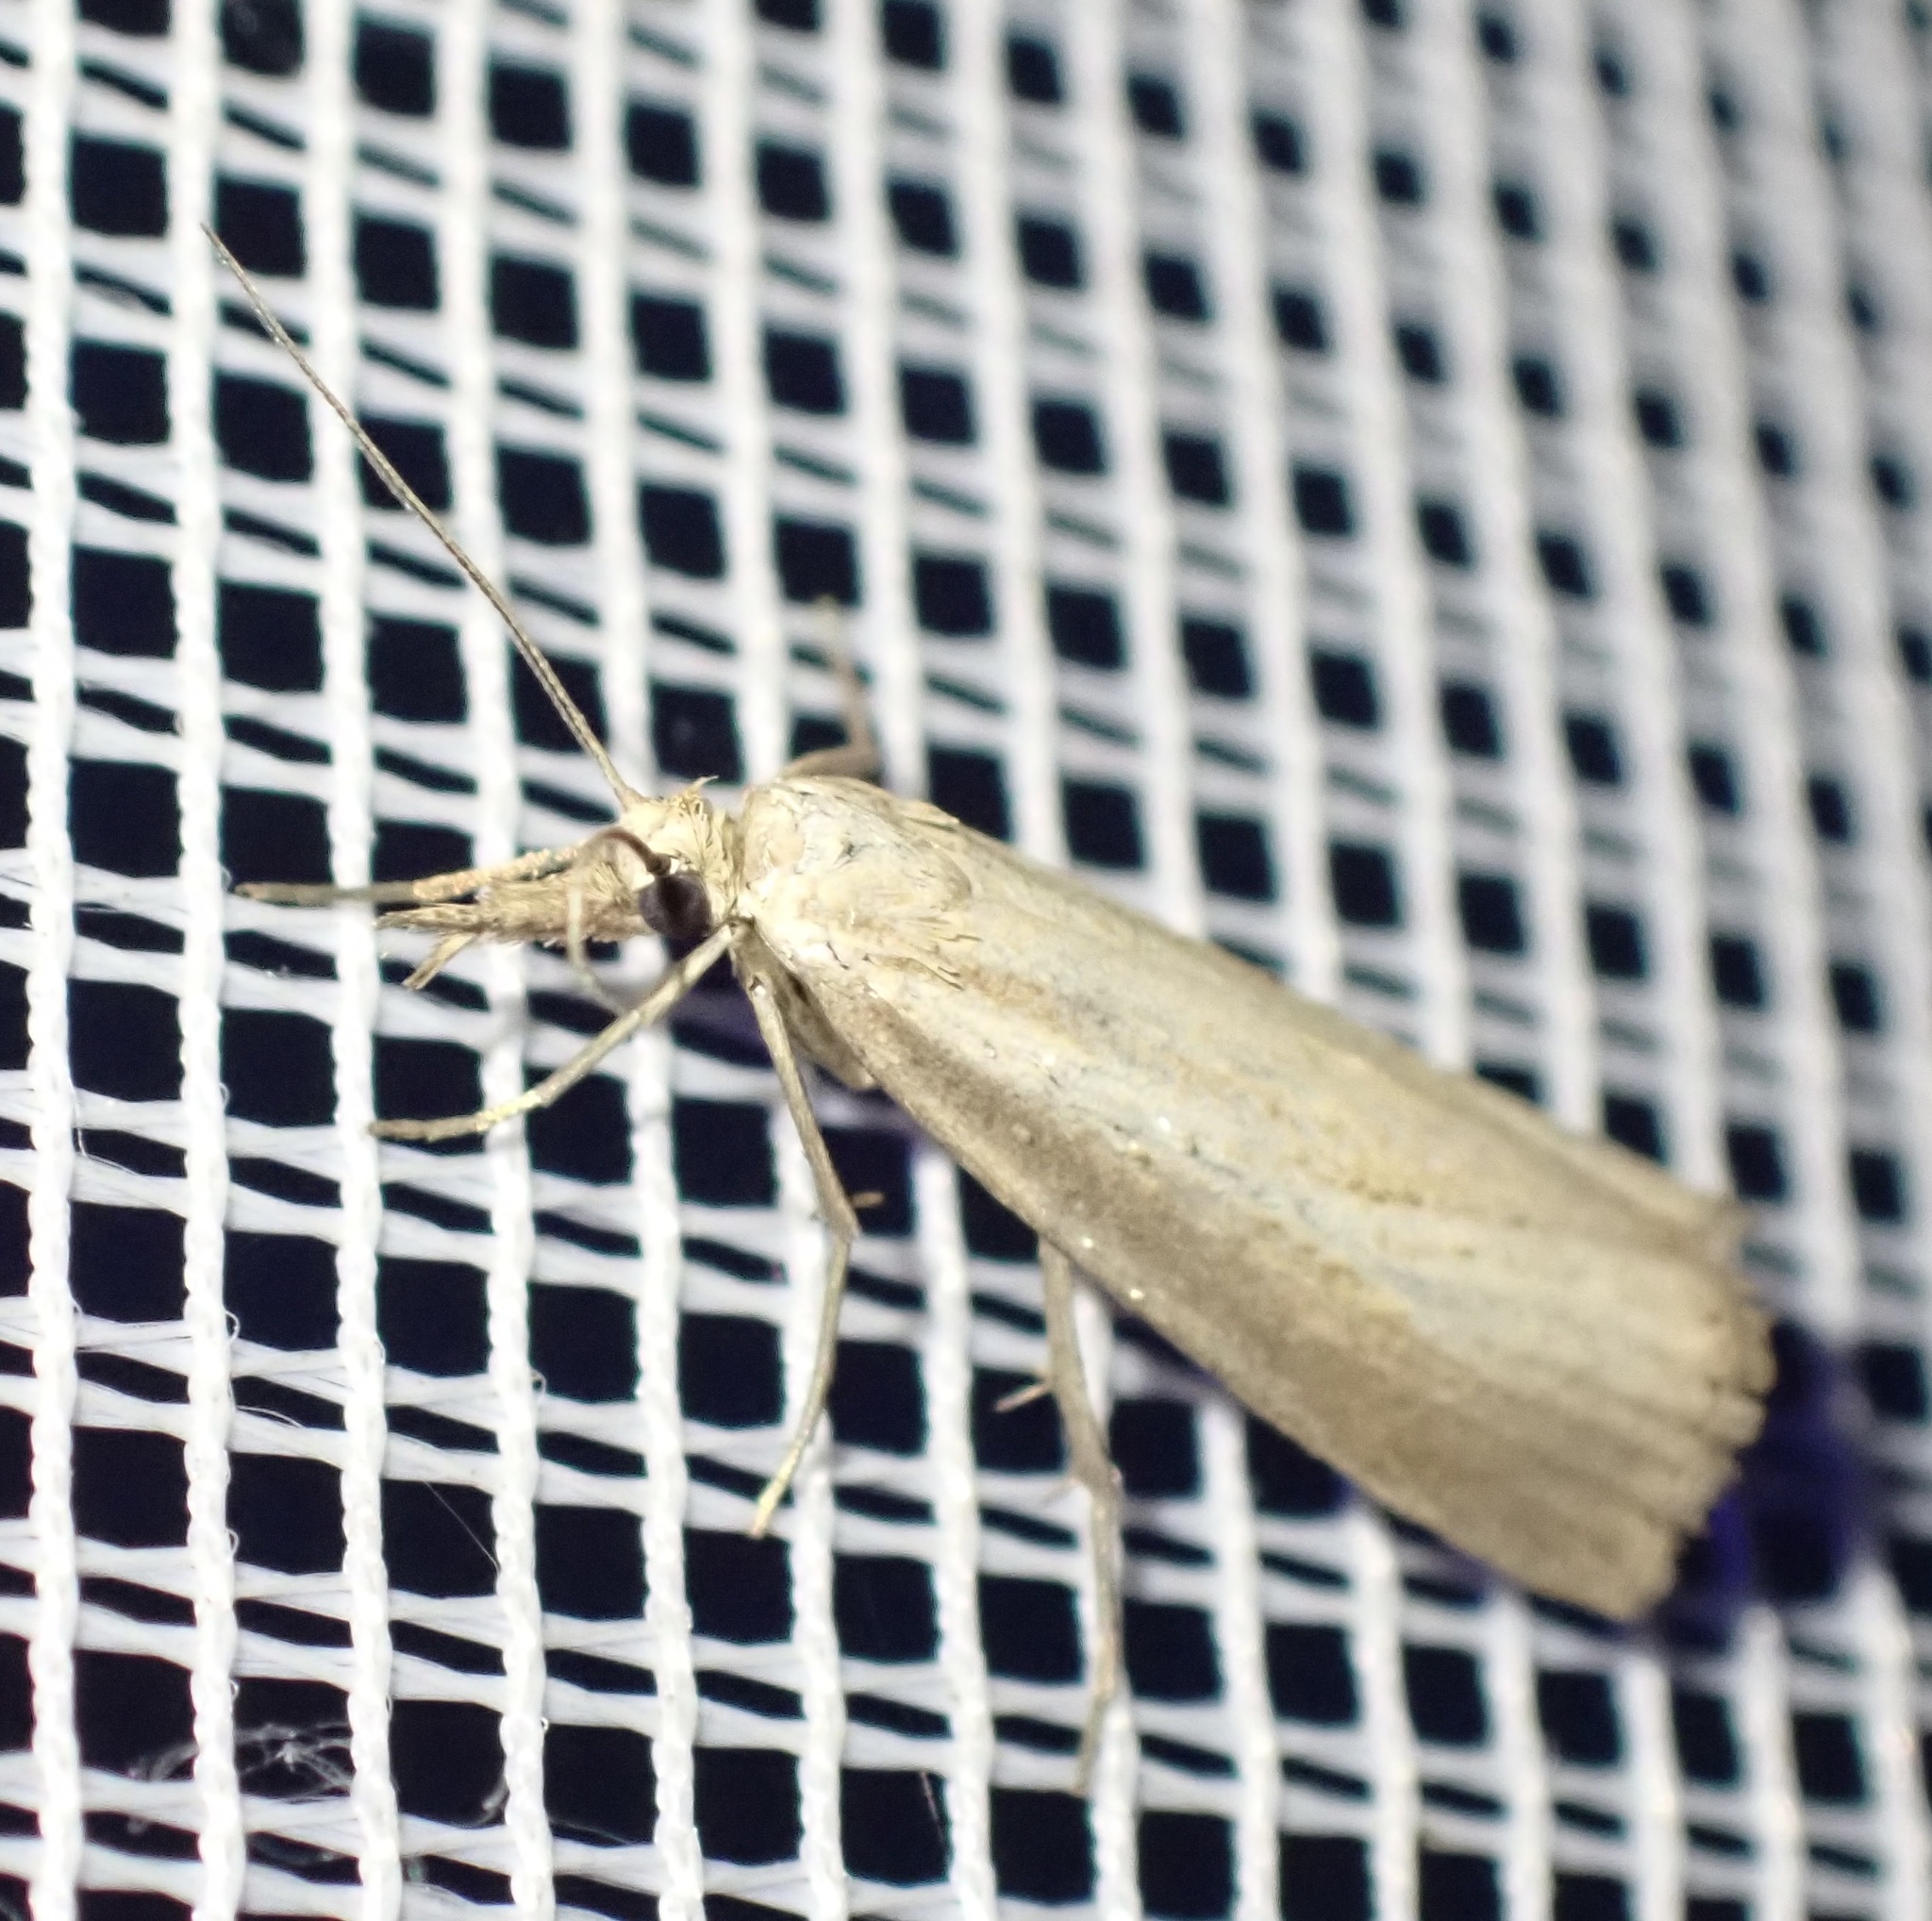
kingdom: Animalia
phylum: Arthropoda
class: Insecta
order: Lepidoptera
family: Crambidae
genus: Agriphila
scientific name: Agriphila straminella
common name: Straw grass-veneer
